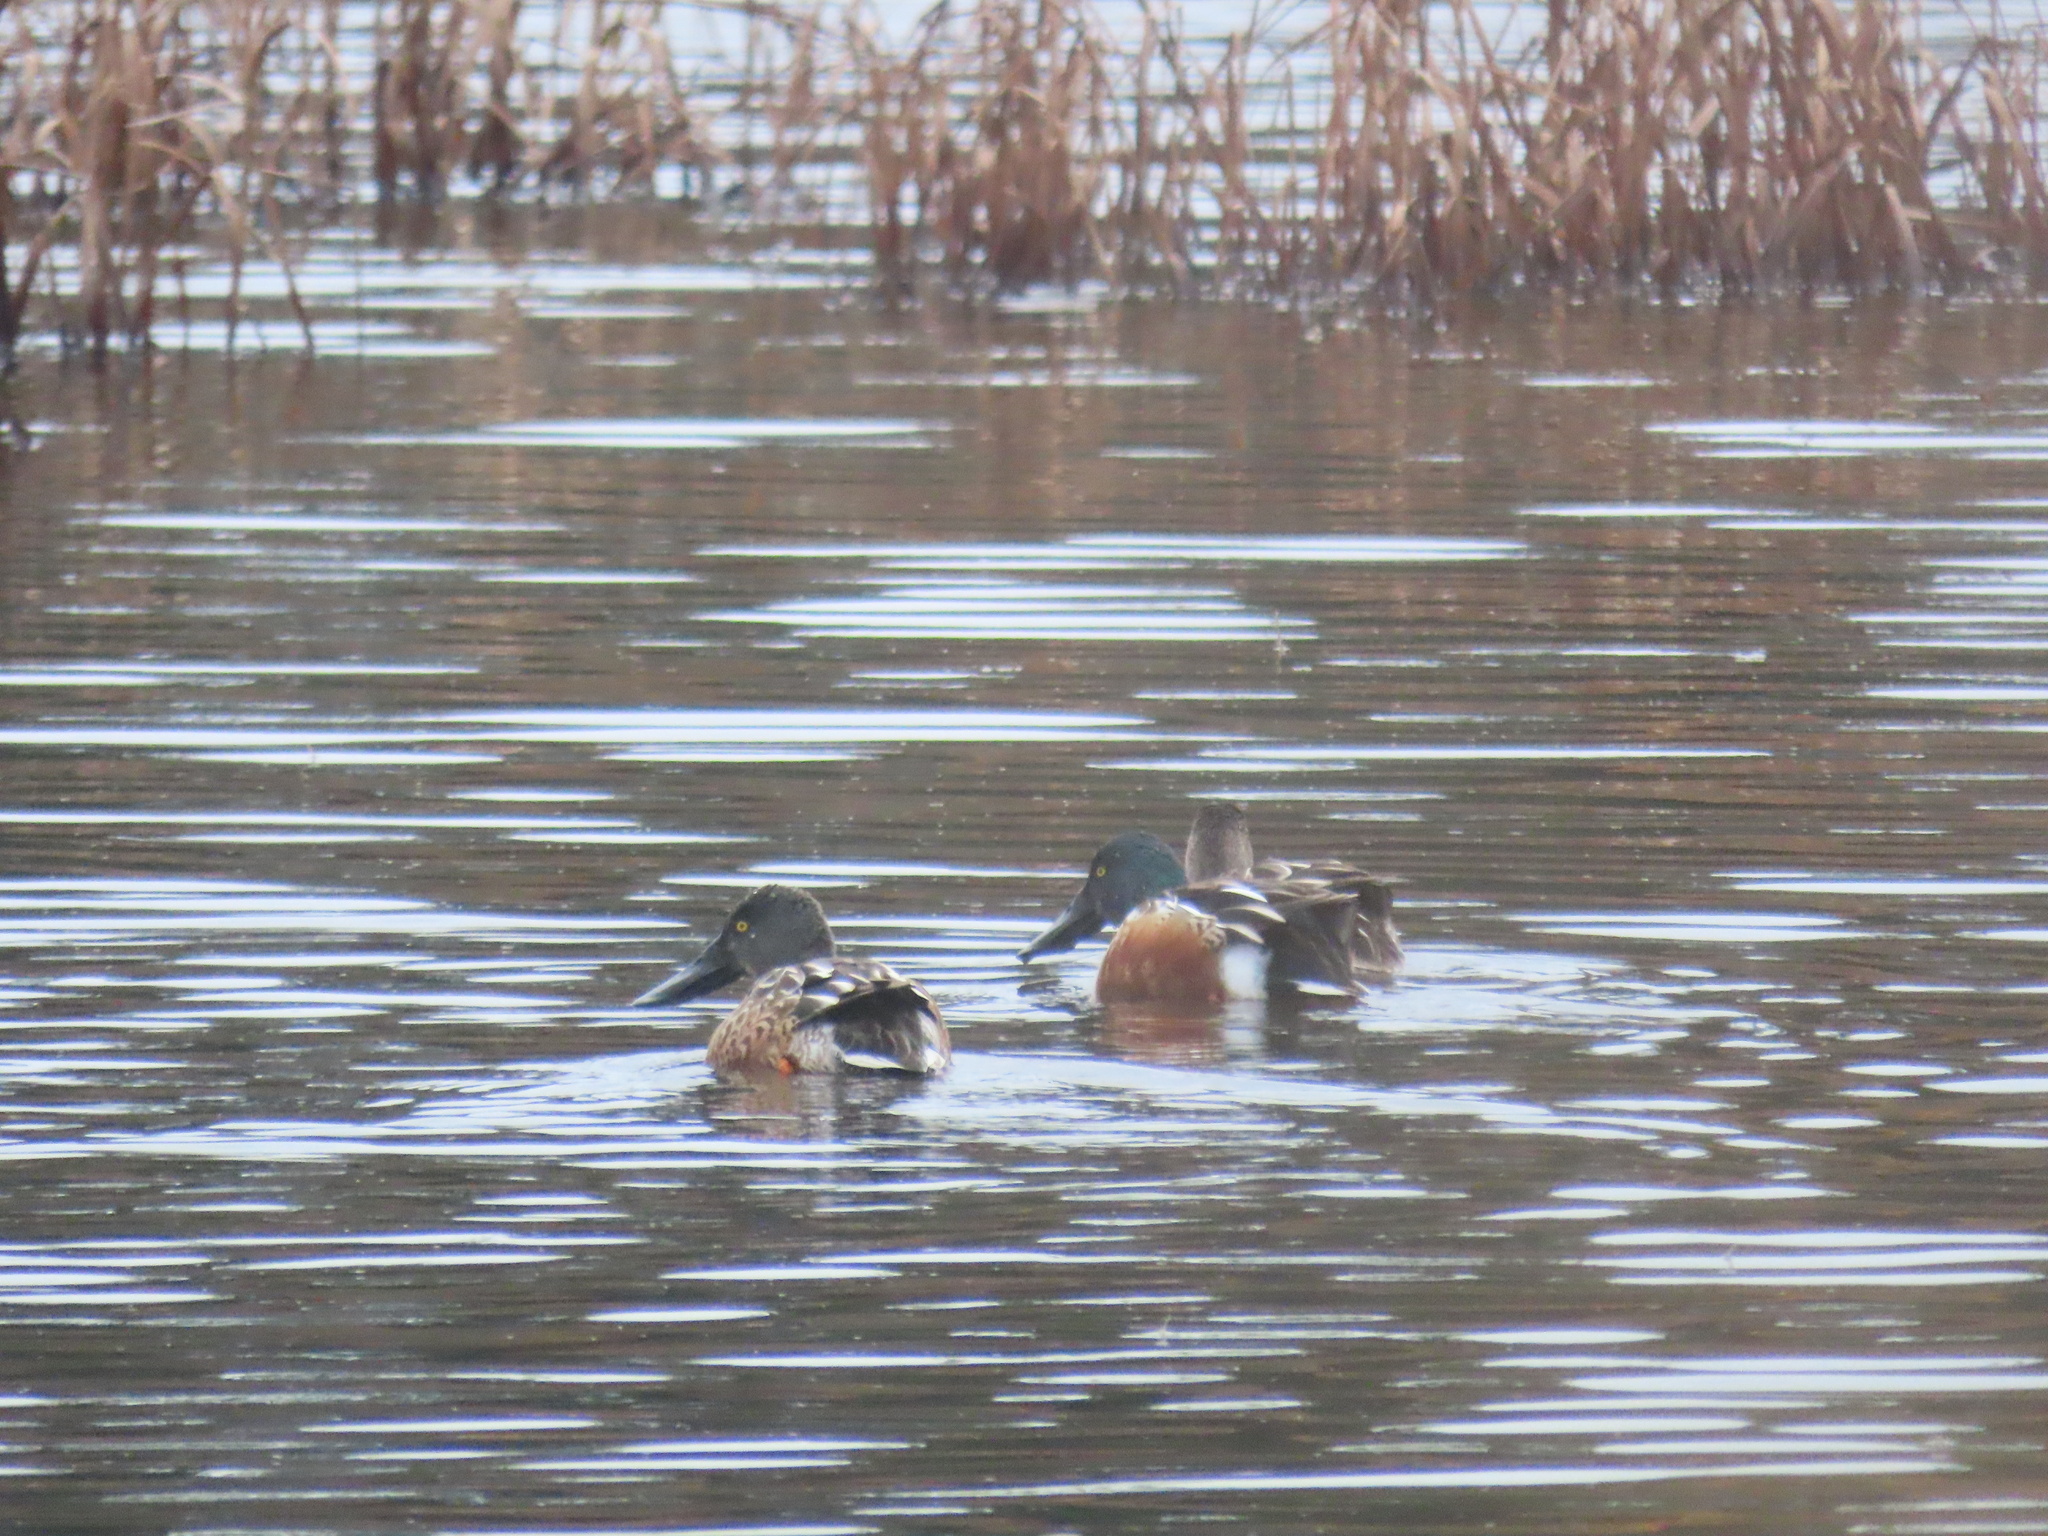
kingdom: Animalia
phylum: Chordata
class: Aves
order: Anseriformes
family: Anatidae
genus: Spatula
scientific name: Spatula clypeata
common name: Northern shoveler
